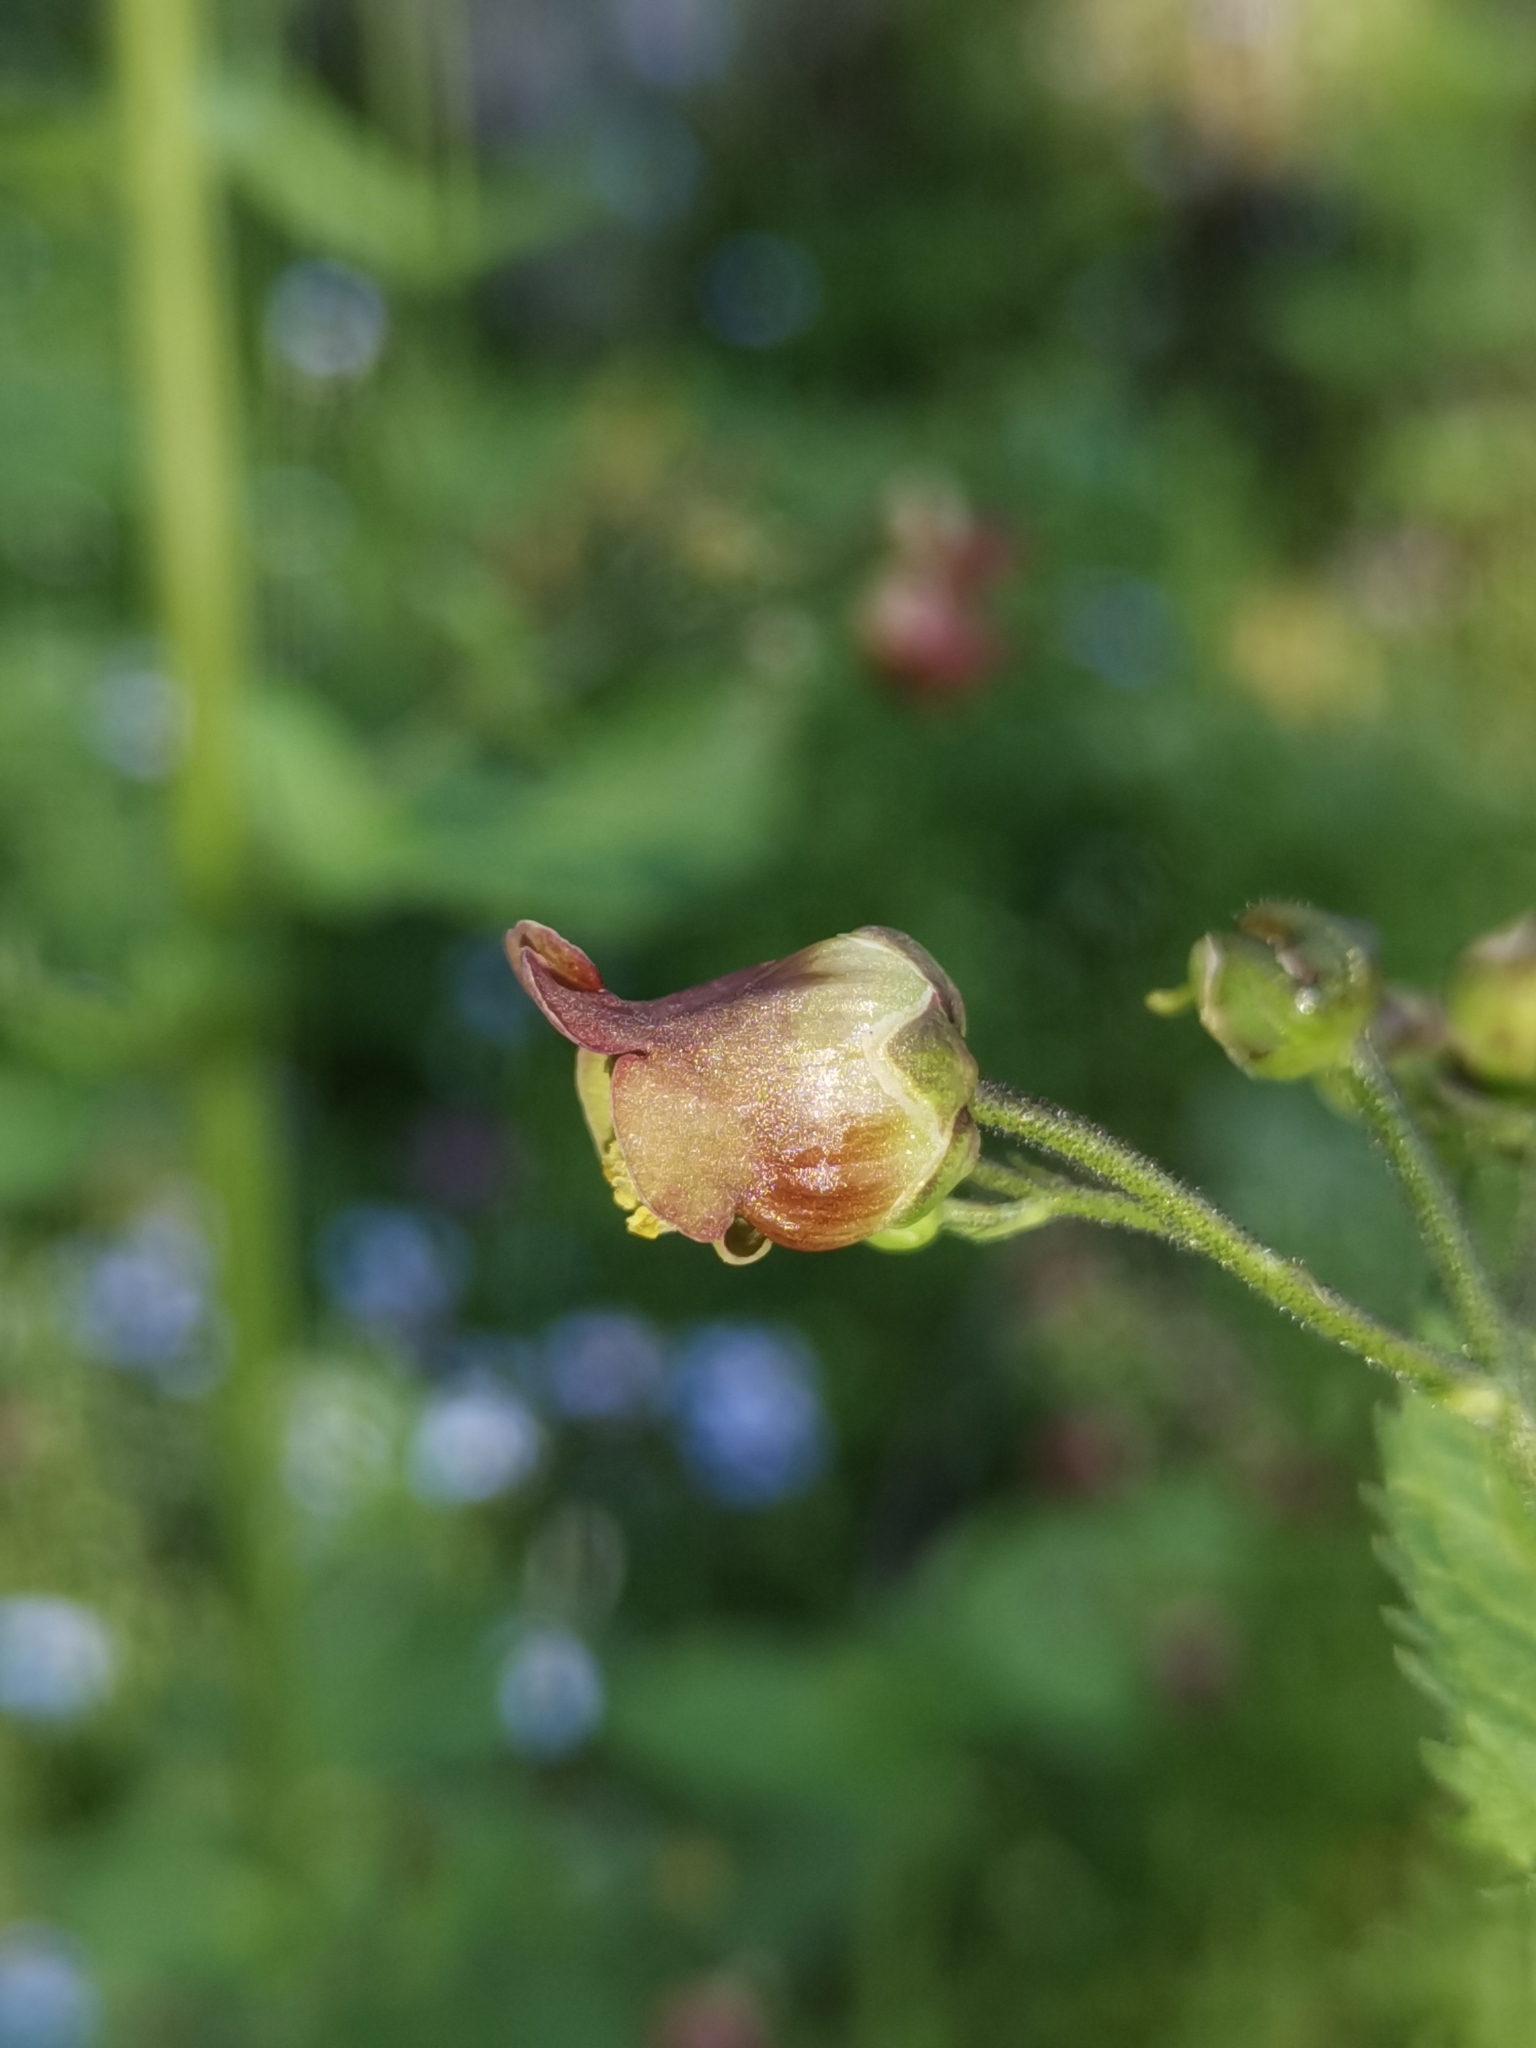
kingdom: Plantae
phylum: Tracheophyta
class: Magnoliopsida
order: Lamiales
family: Scrophulariaceae
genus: Scrophularia
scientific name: Scrophularia scopolii
